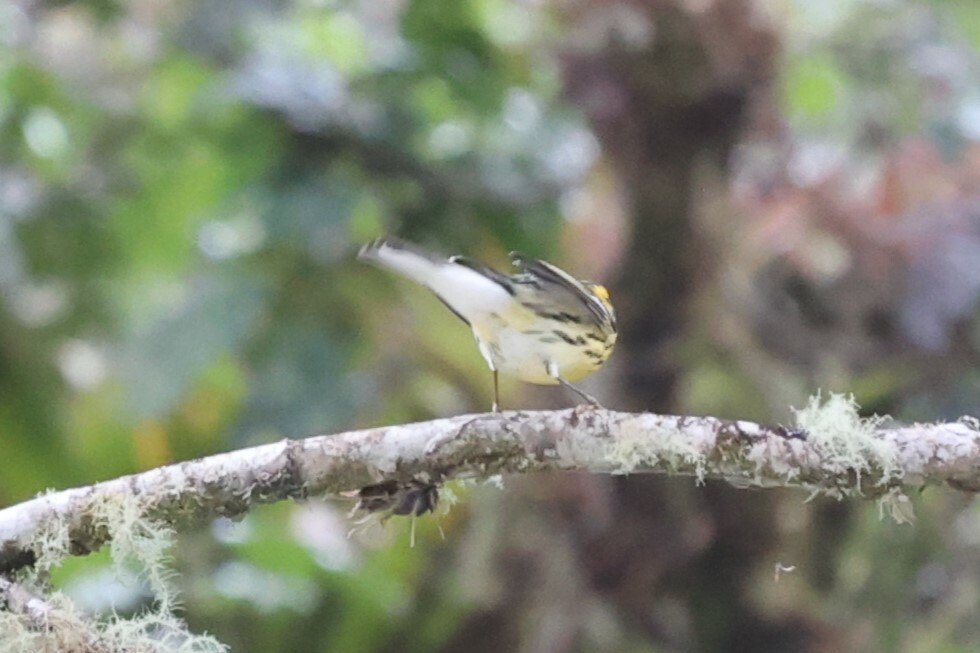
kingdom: Animalia
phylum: Chordata
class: Aves
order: Passeriformes
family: Parulidae
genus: Setophaga
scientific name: Setophaga fusca
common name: Blackburnian warbler
